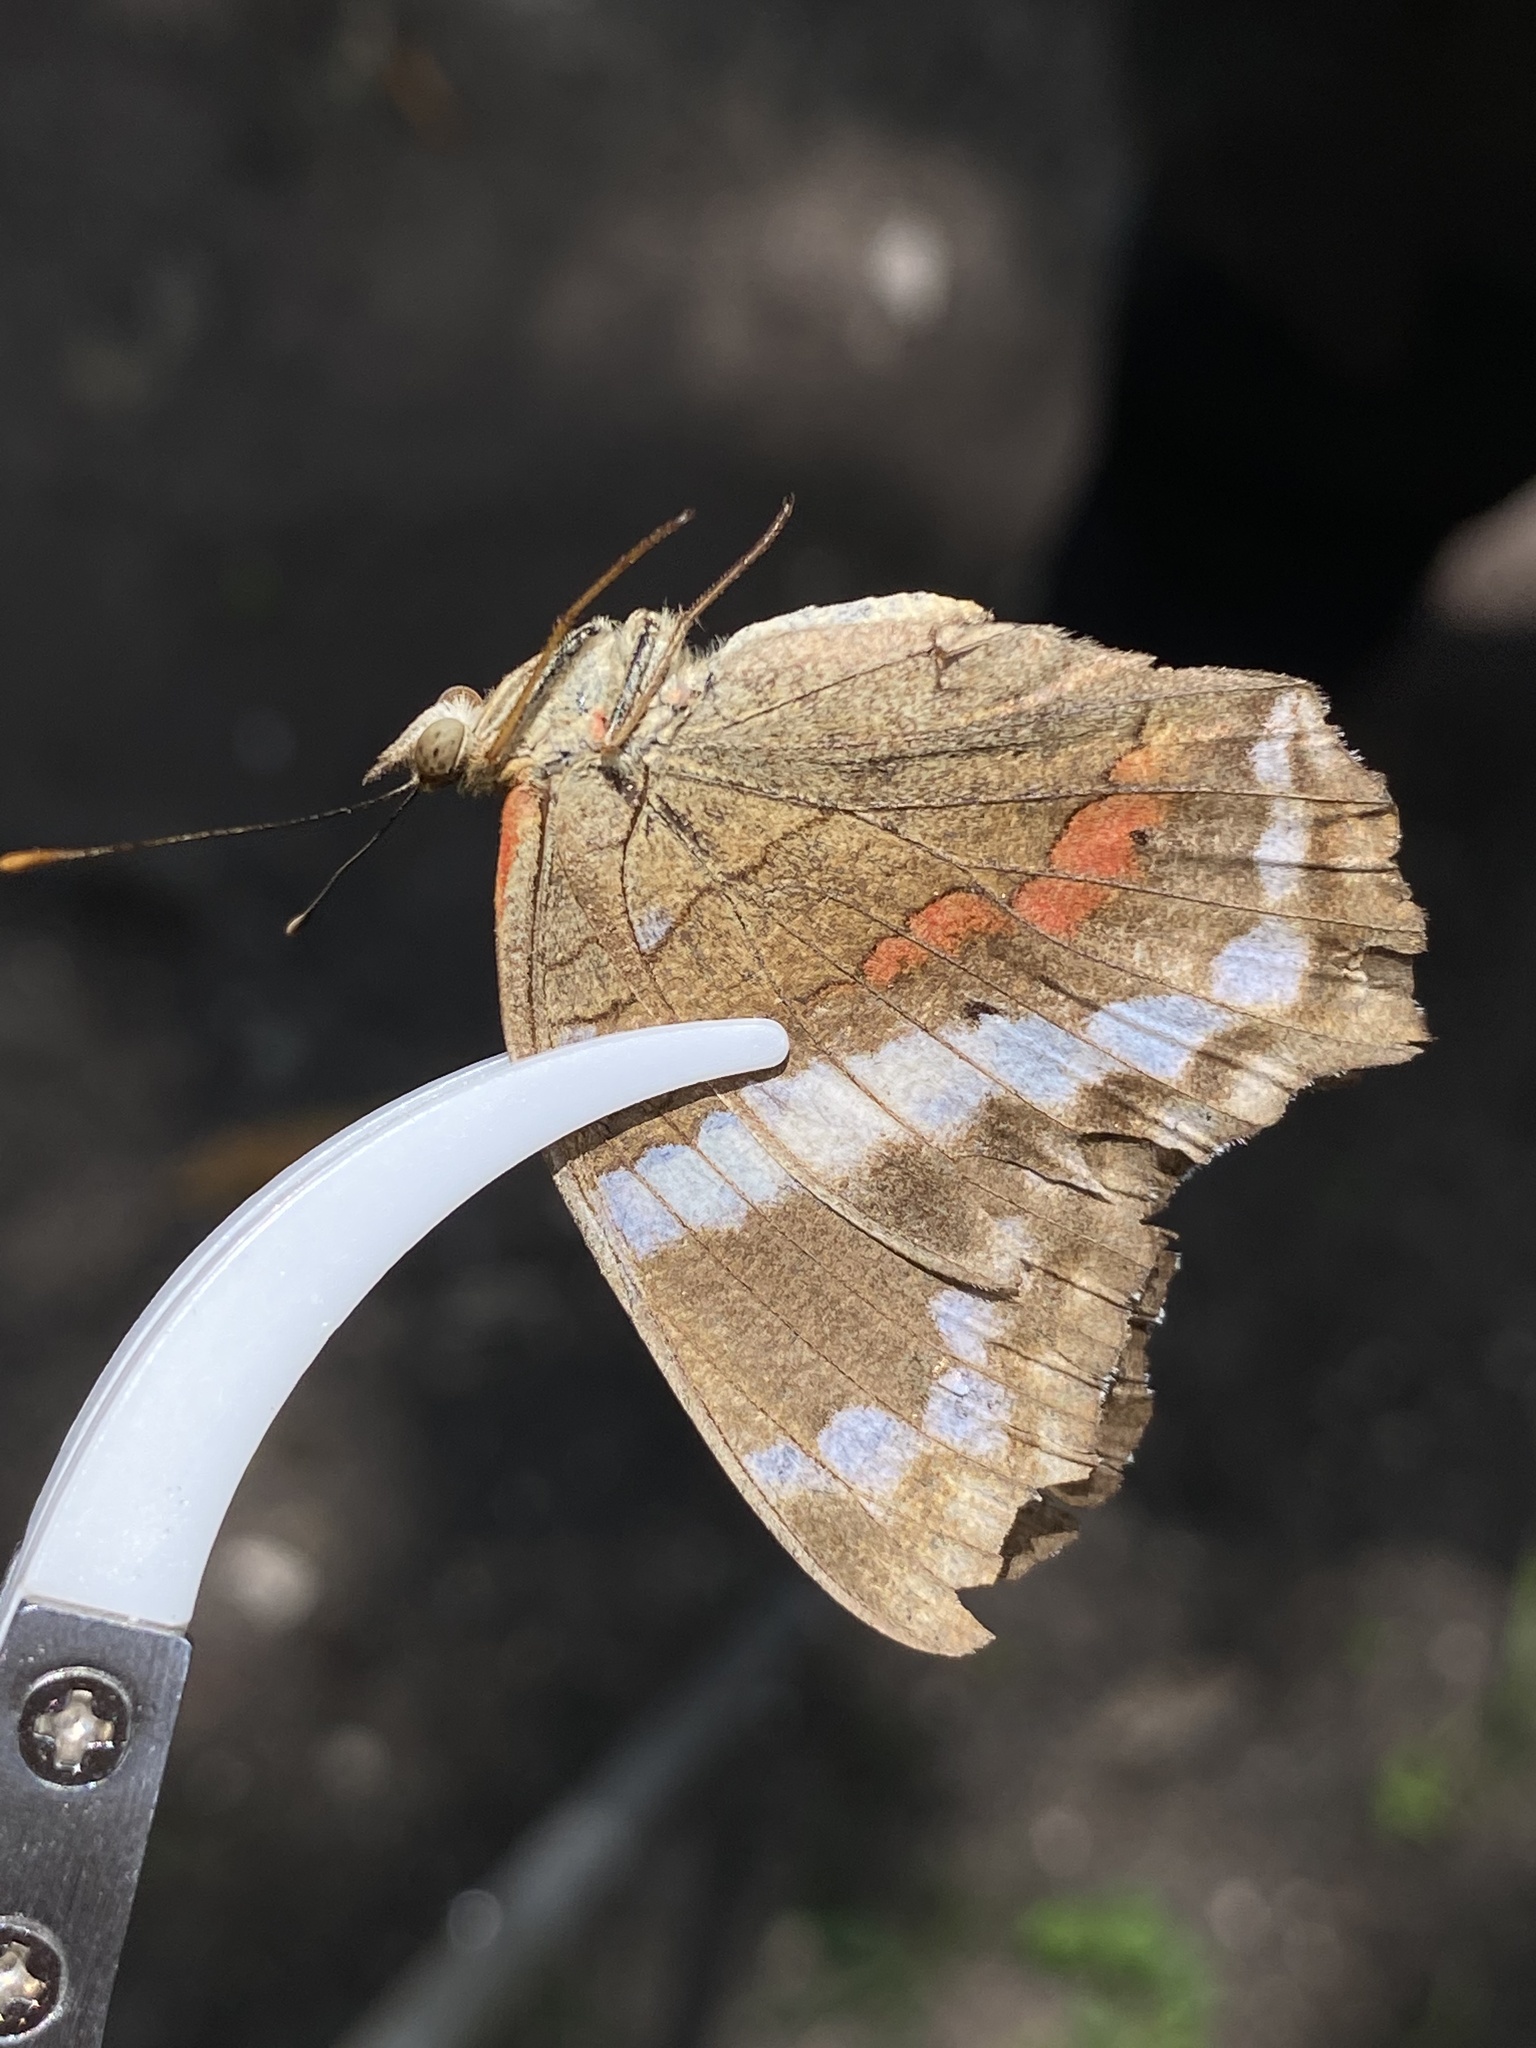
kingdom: Animalia
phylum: Arthropoda
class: Insecta
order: Lepidoptera
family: Nymphalidae
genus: Anartia
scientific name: Anartia fatima
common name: Banded peacock
